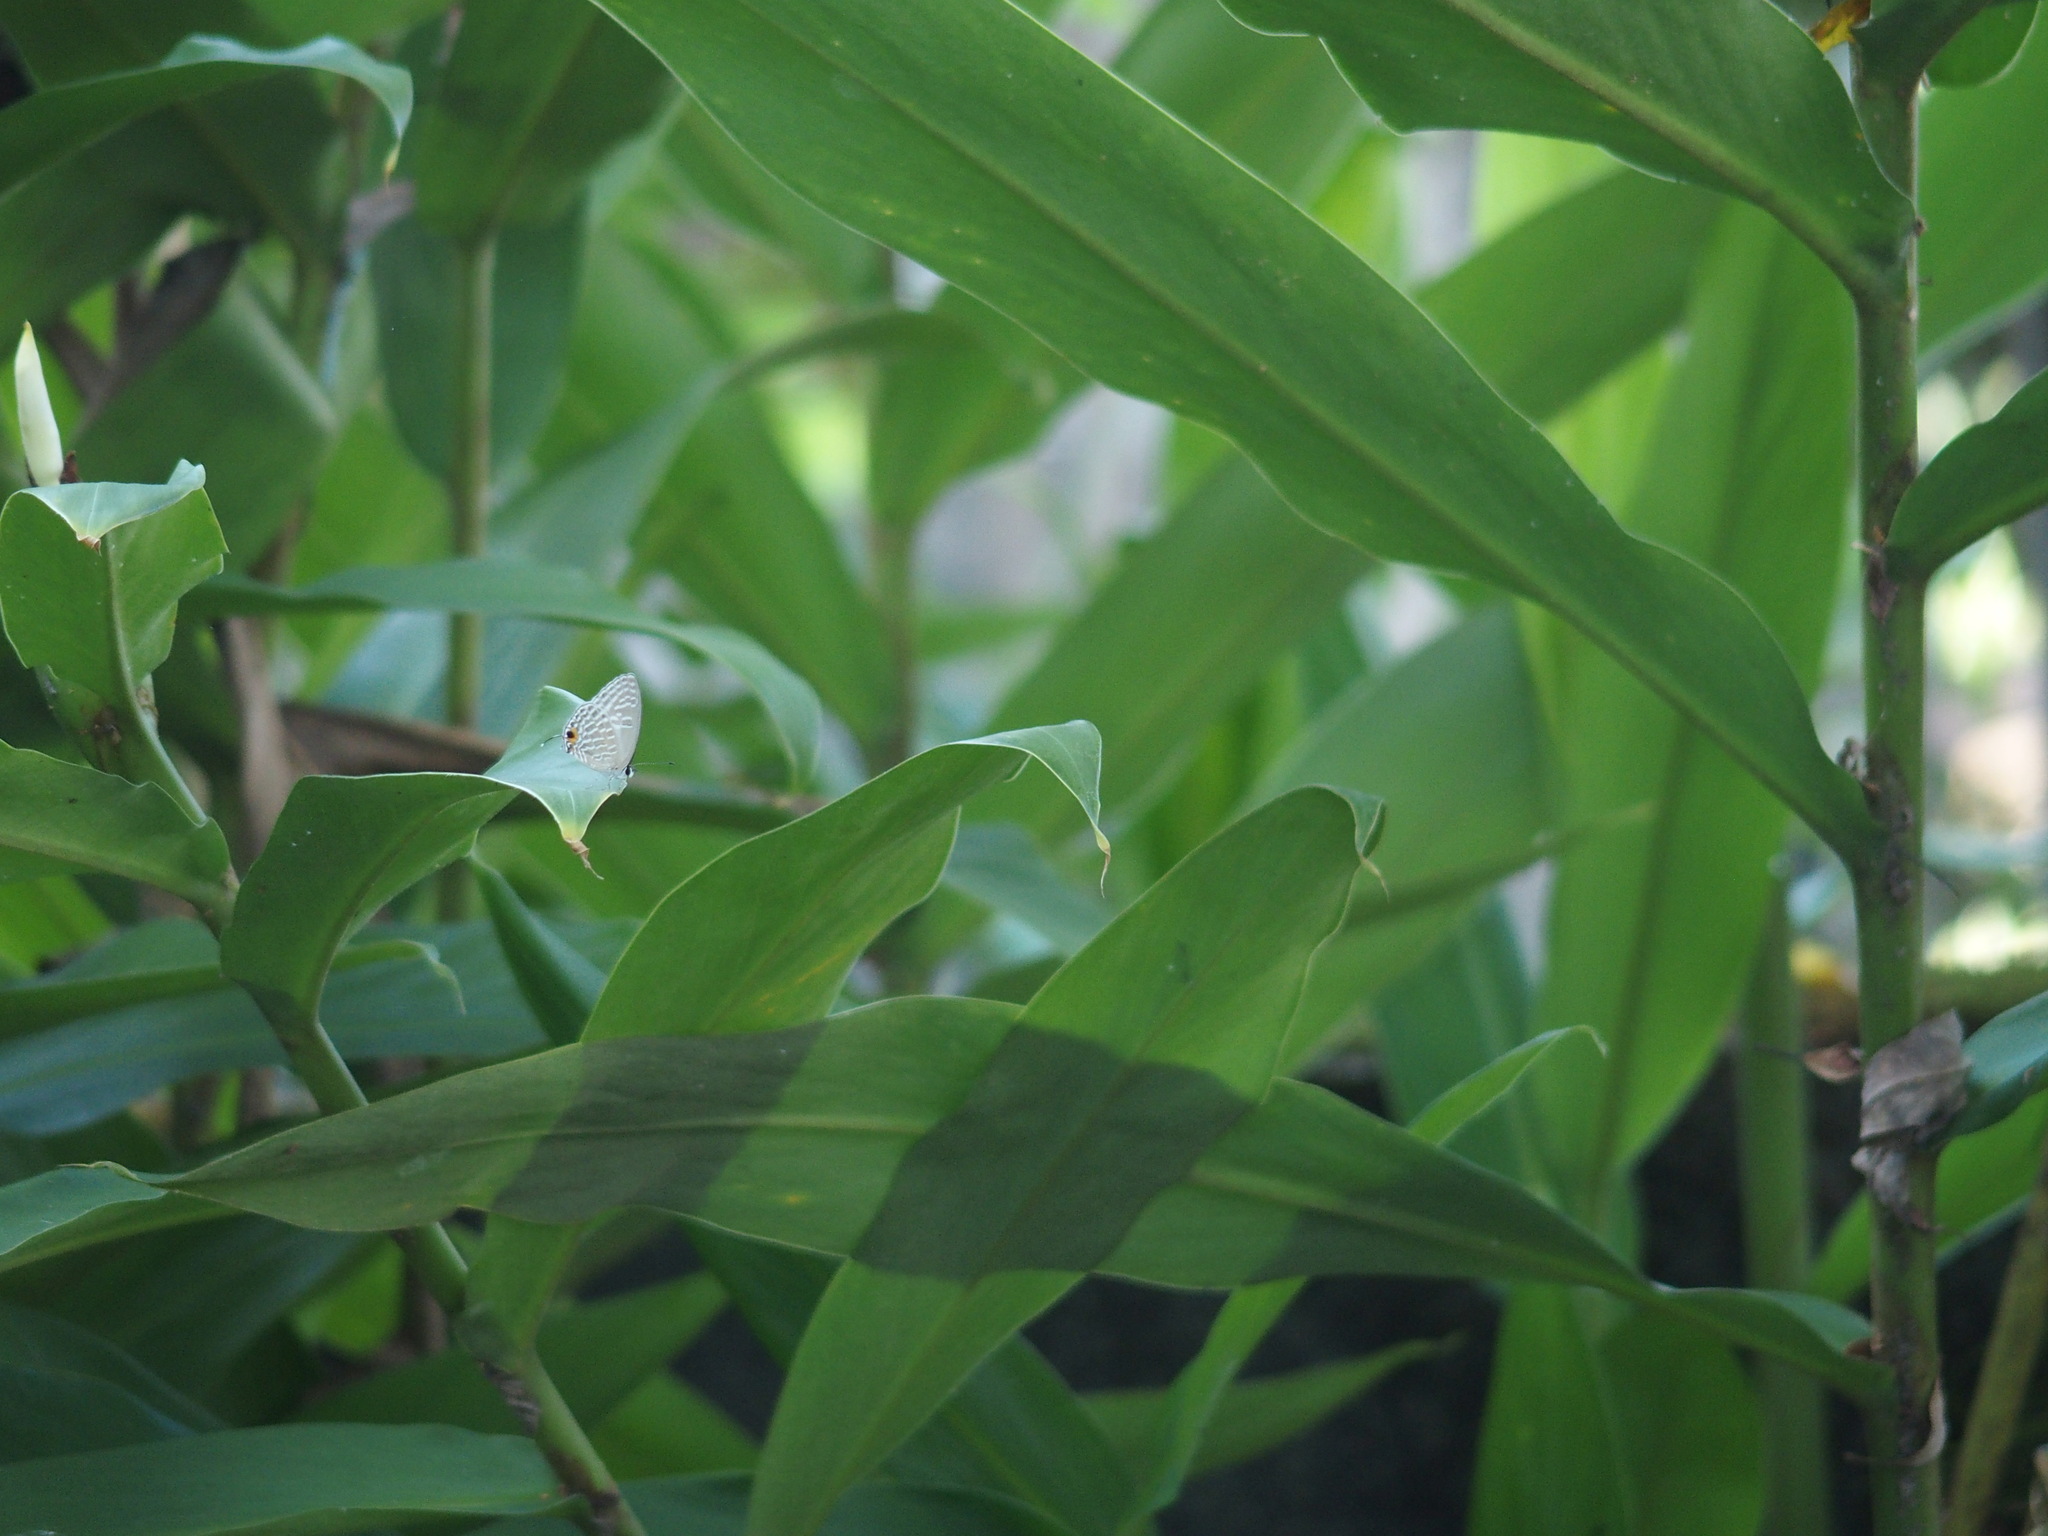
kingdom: Animalia
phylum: Arthropoda
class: Insecta
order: Lepidoptera
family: Lycaenidae
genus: Jamides
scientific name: Jamides alecto
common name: Metallic cerulean
